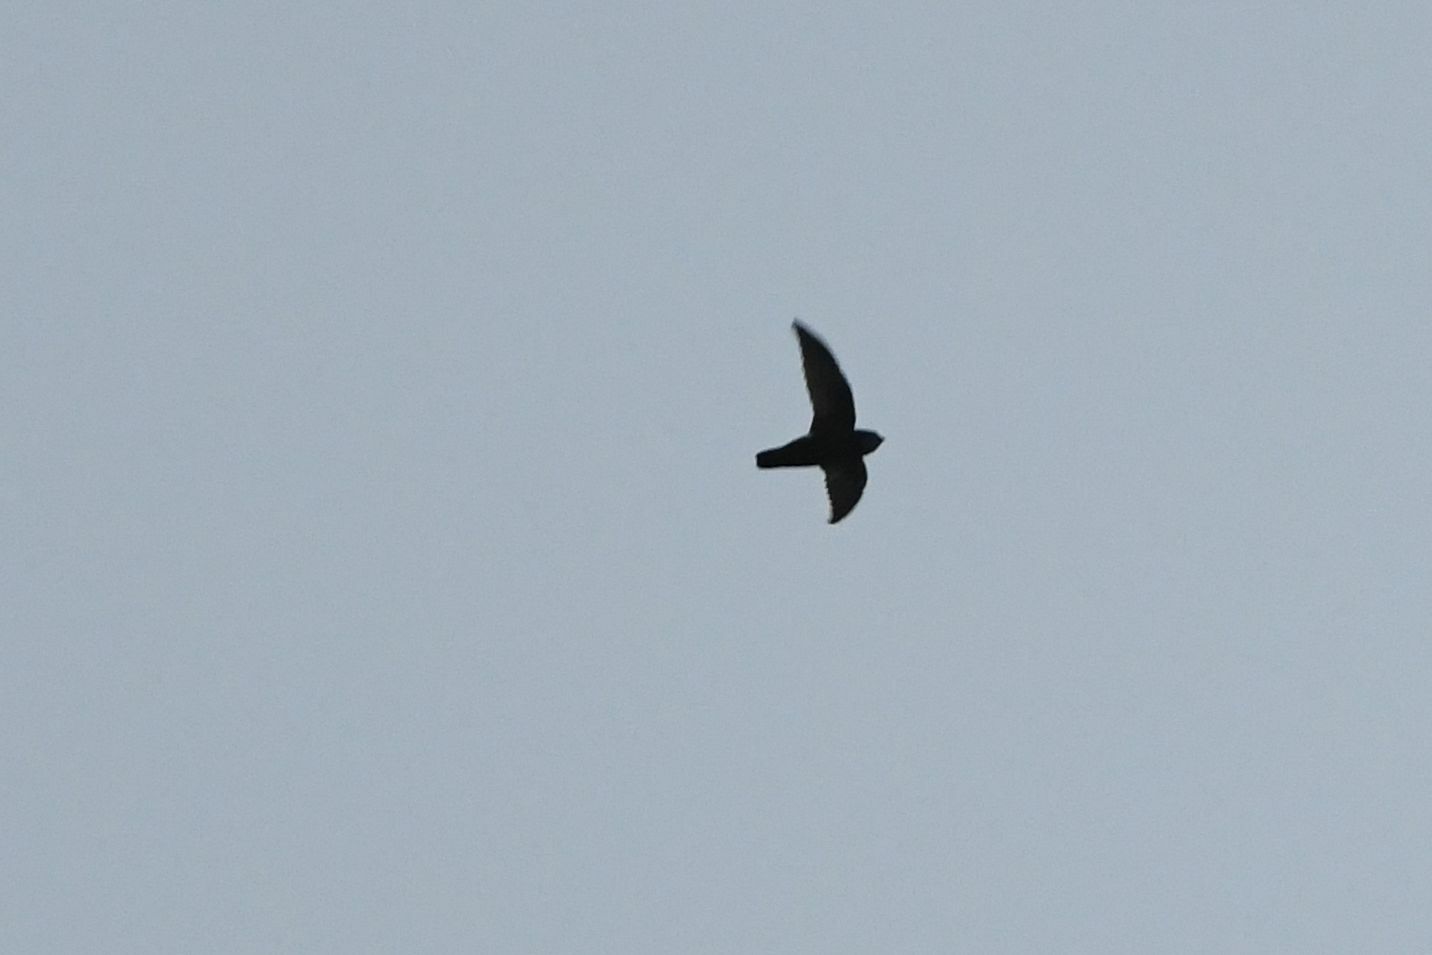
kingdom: Animalia
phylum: Chordata
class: Aves
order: Apodiformes
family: Apodidae
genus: Apus
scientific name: Apus affinis
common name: Little swift
